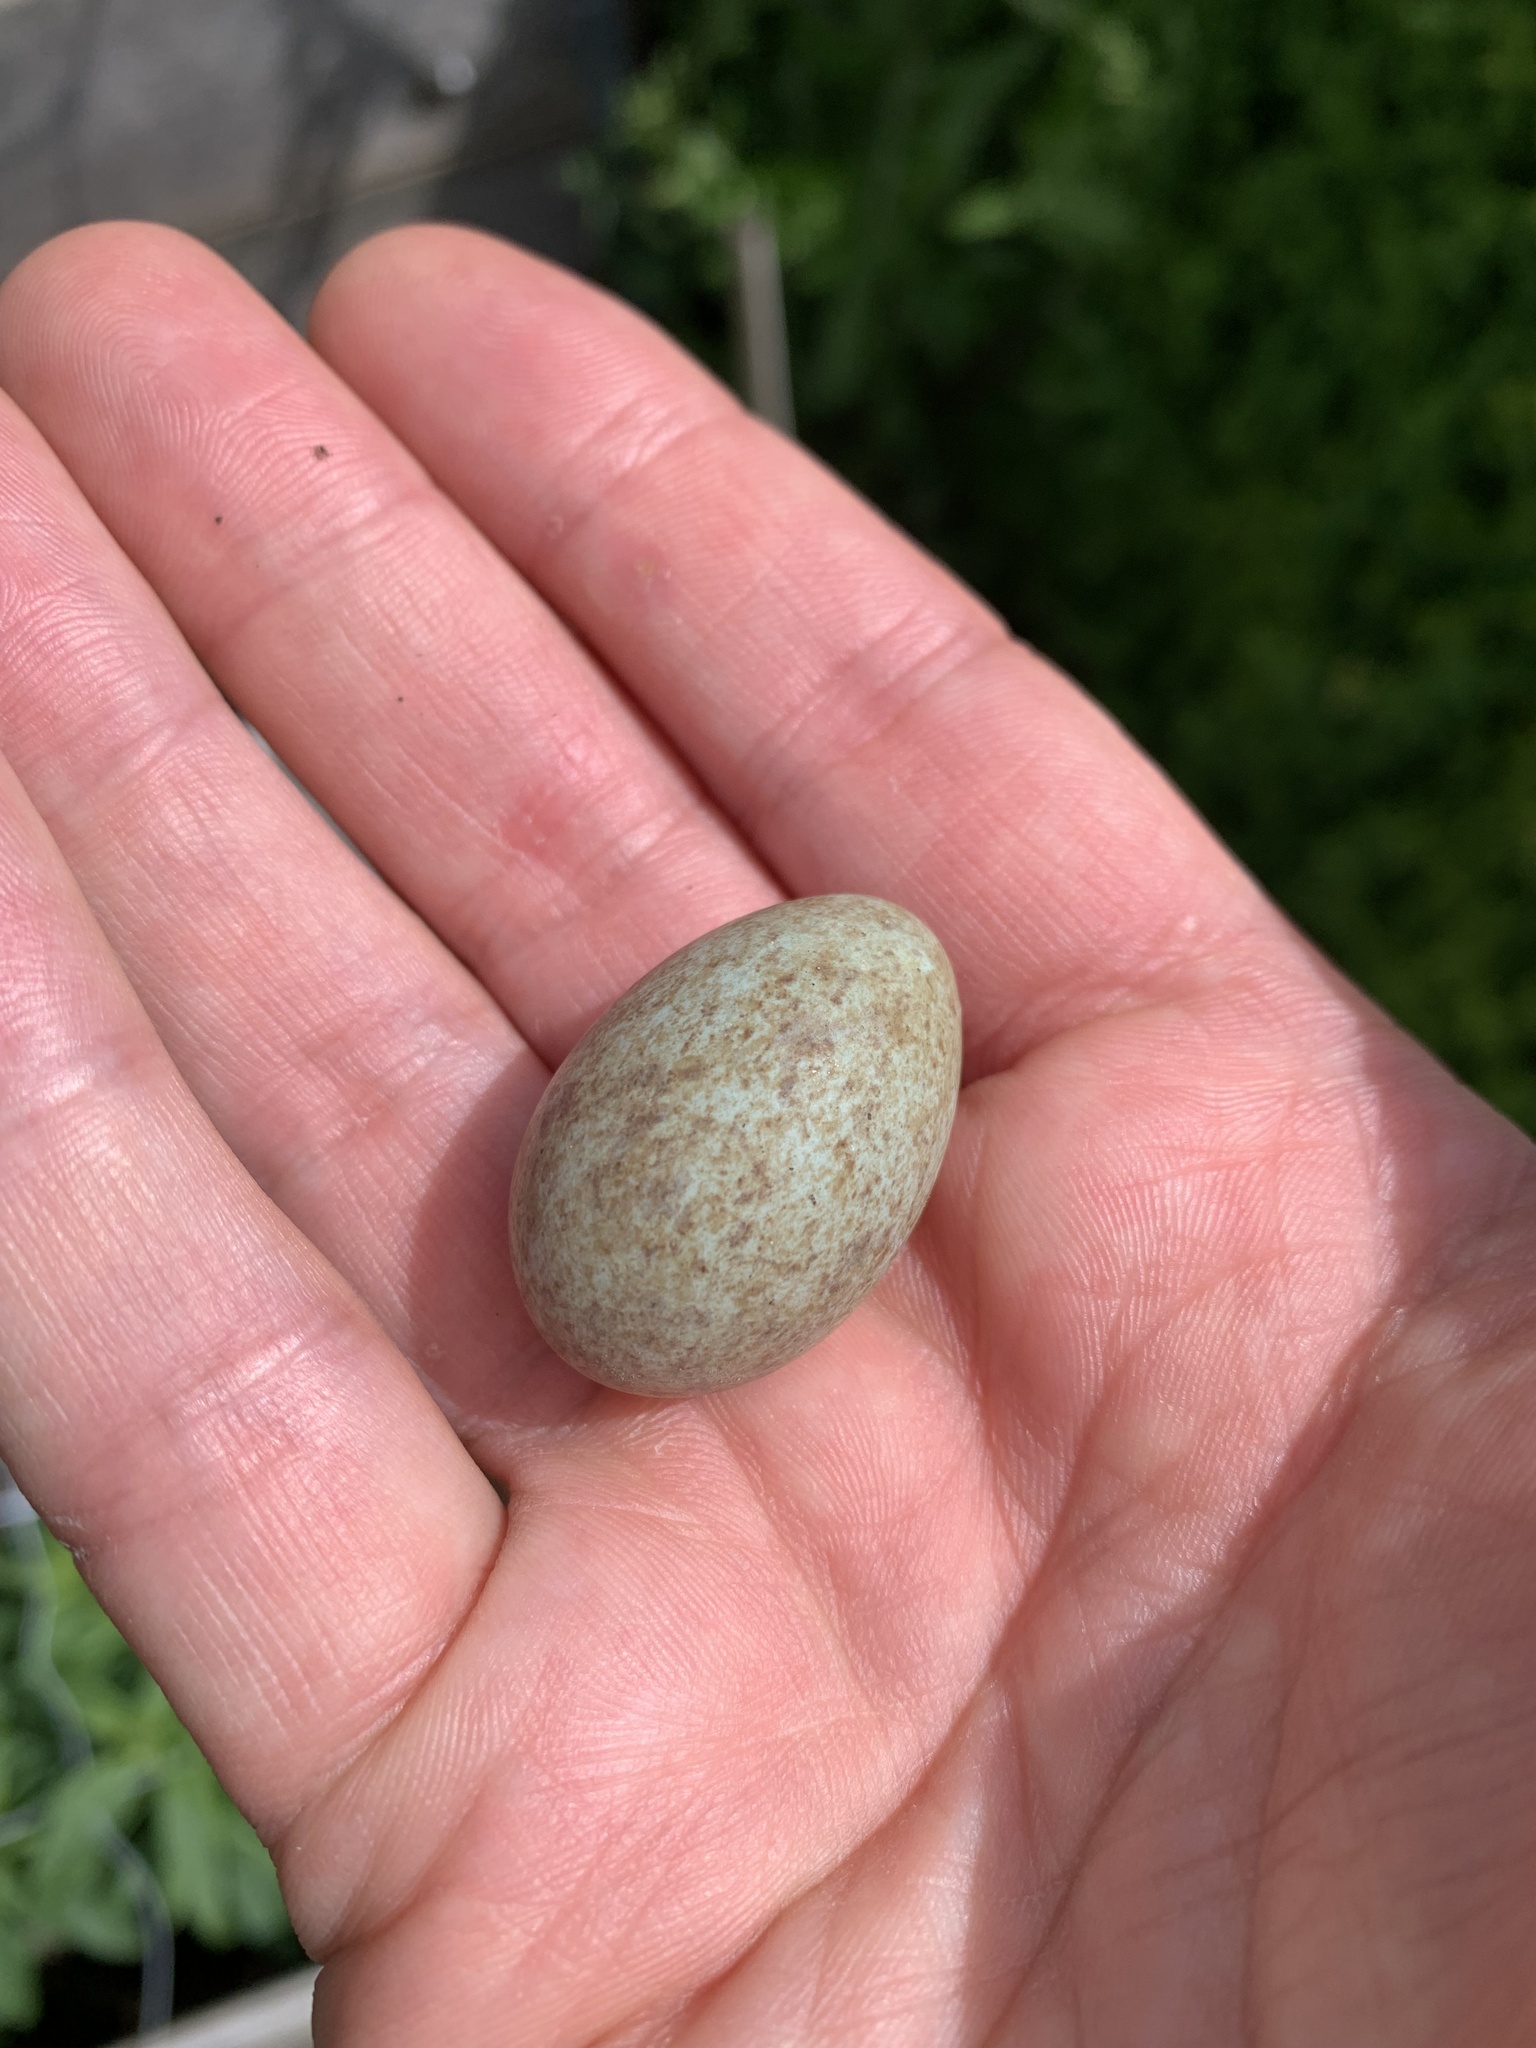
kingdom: Animalia
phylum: Chordata
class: Aves
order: Passeriformes
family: Turdidae
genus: Turdus
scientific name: Turdus merula
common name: Common blackbird
